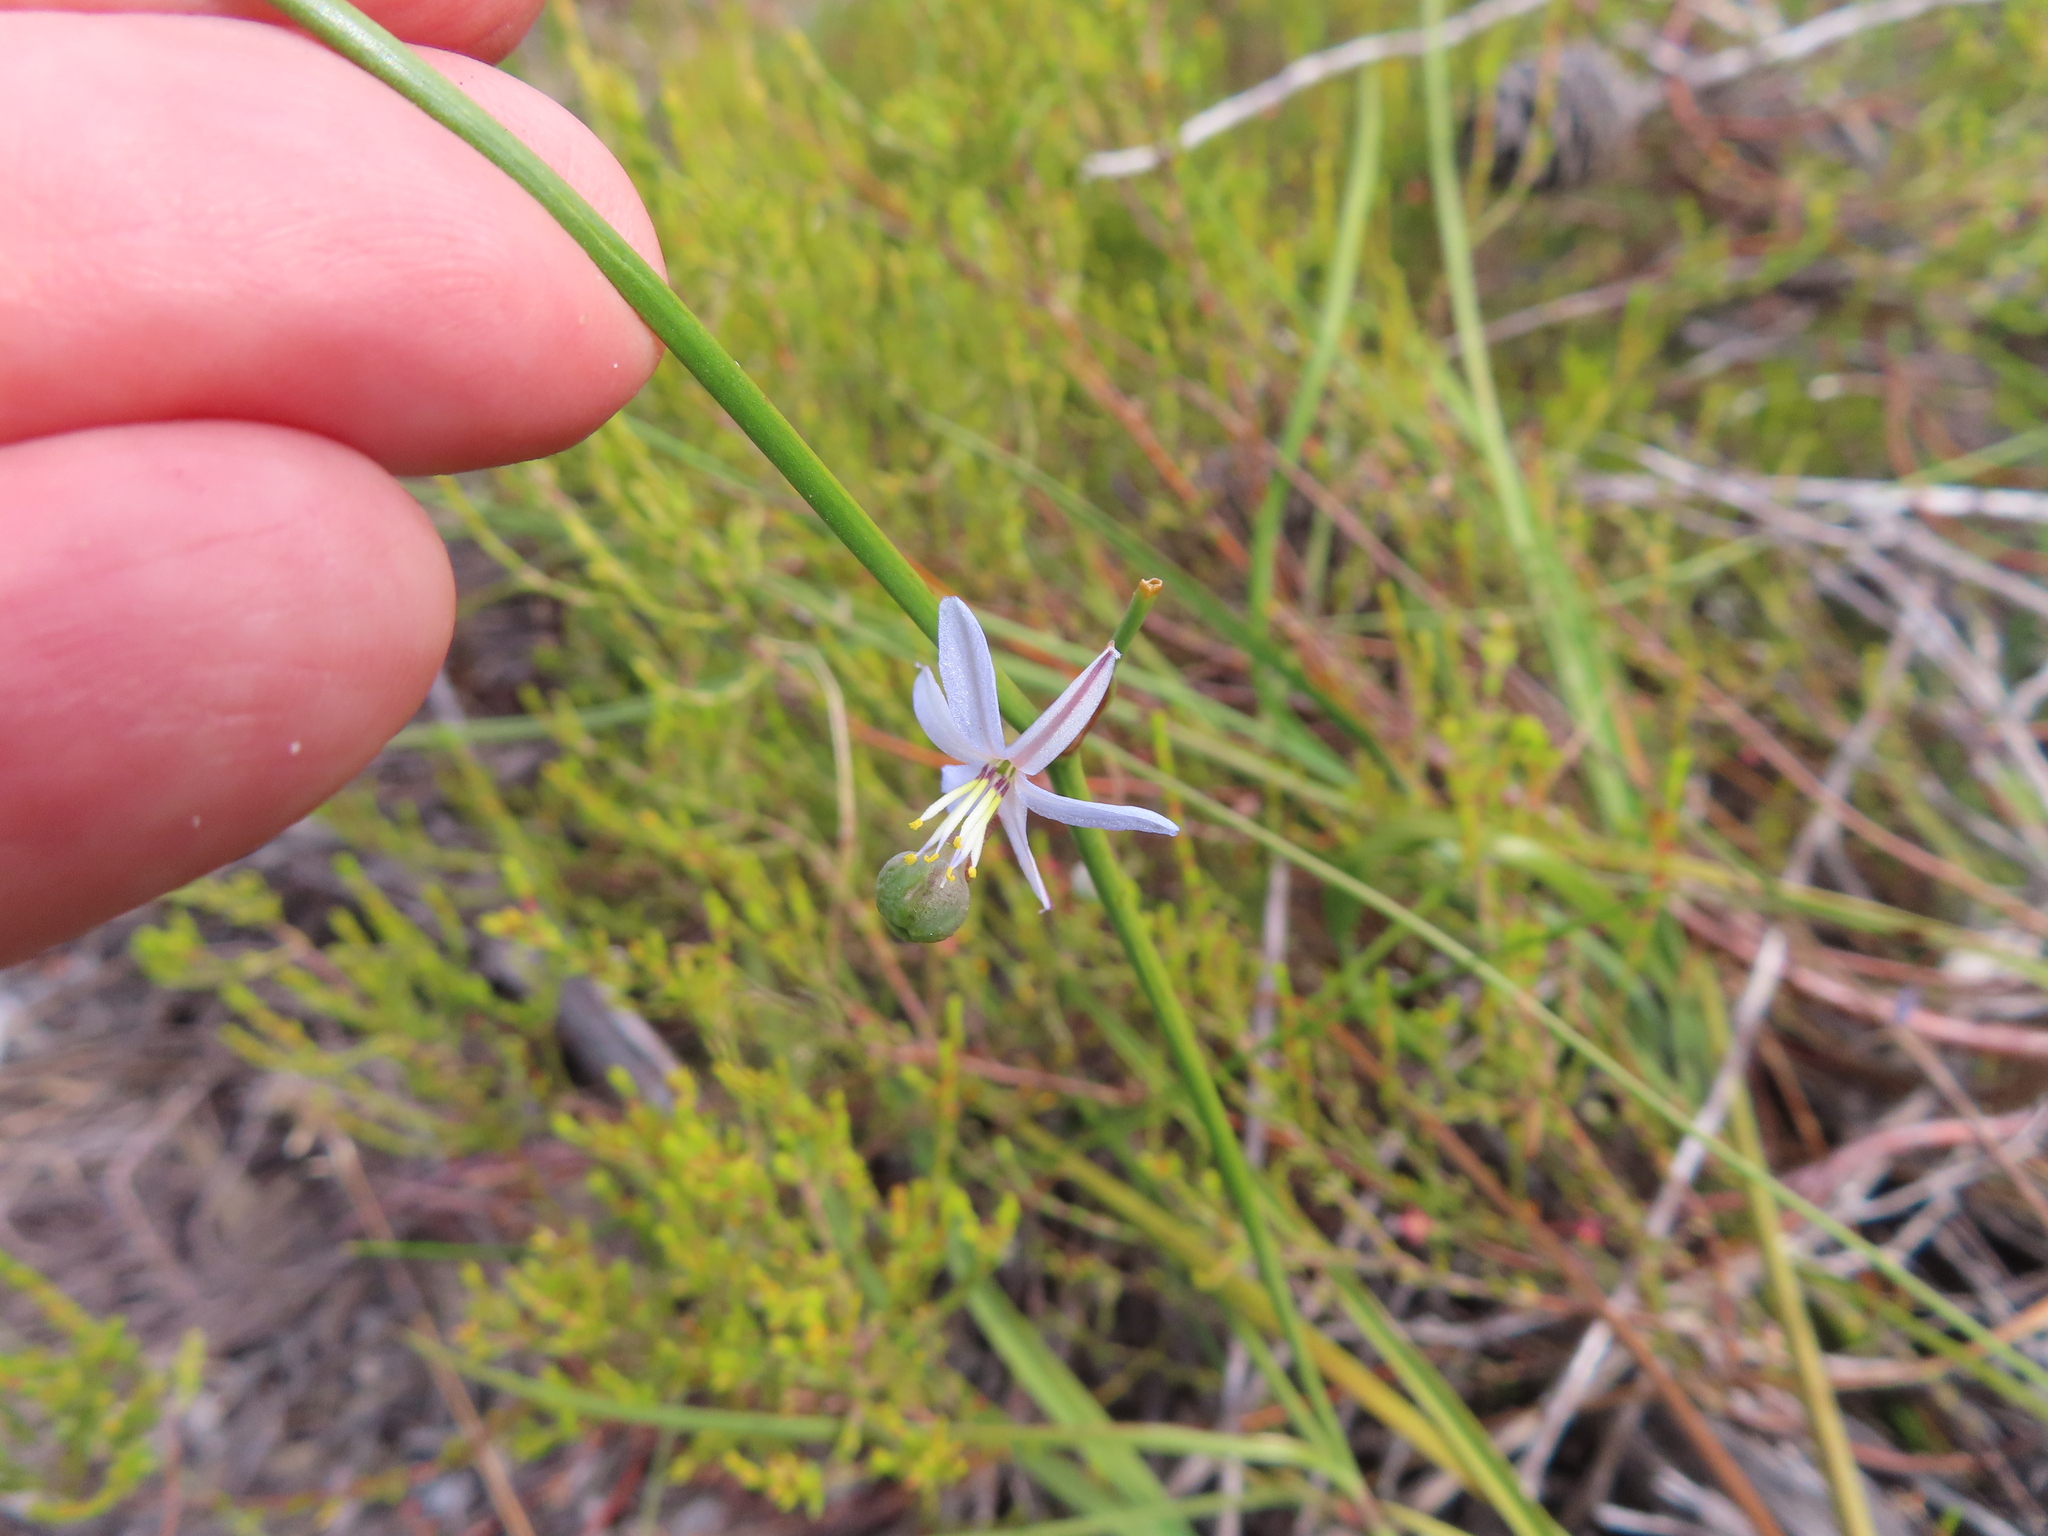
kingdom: Plantae
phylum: Tracheophyta
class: Liliopsida
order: Asparagales
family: Asphodelaceae
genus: Caesia
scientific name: Caesia contorta
